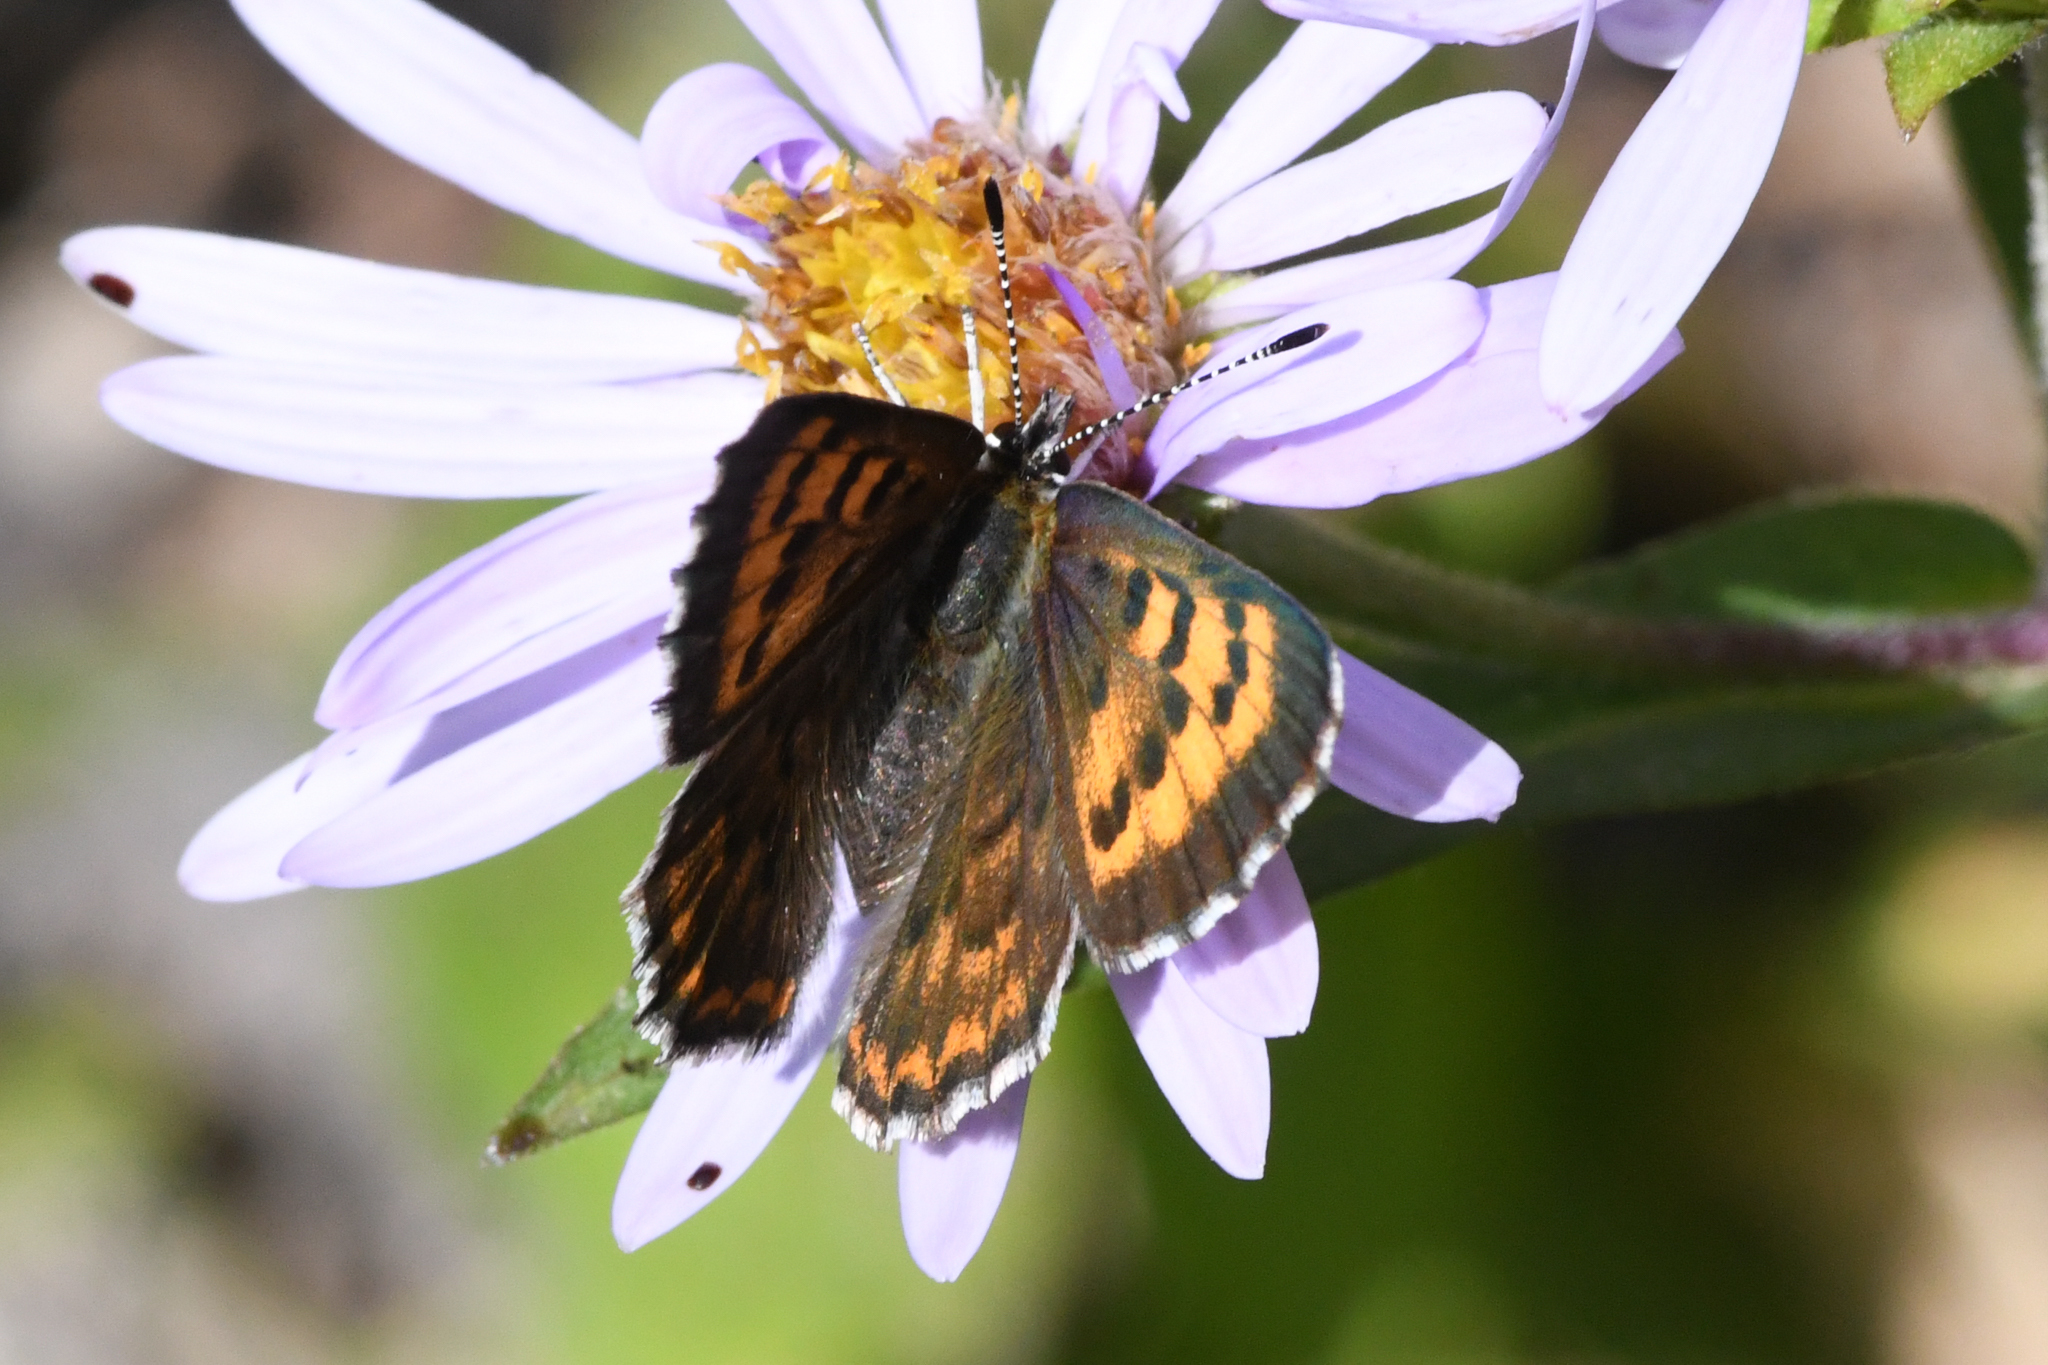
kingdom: Animalia
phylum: Arthropoda
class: Insecta
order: Lepidoptera
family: Lycaenidae
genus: Tharsalea
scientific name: Tharsalea mariposa
